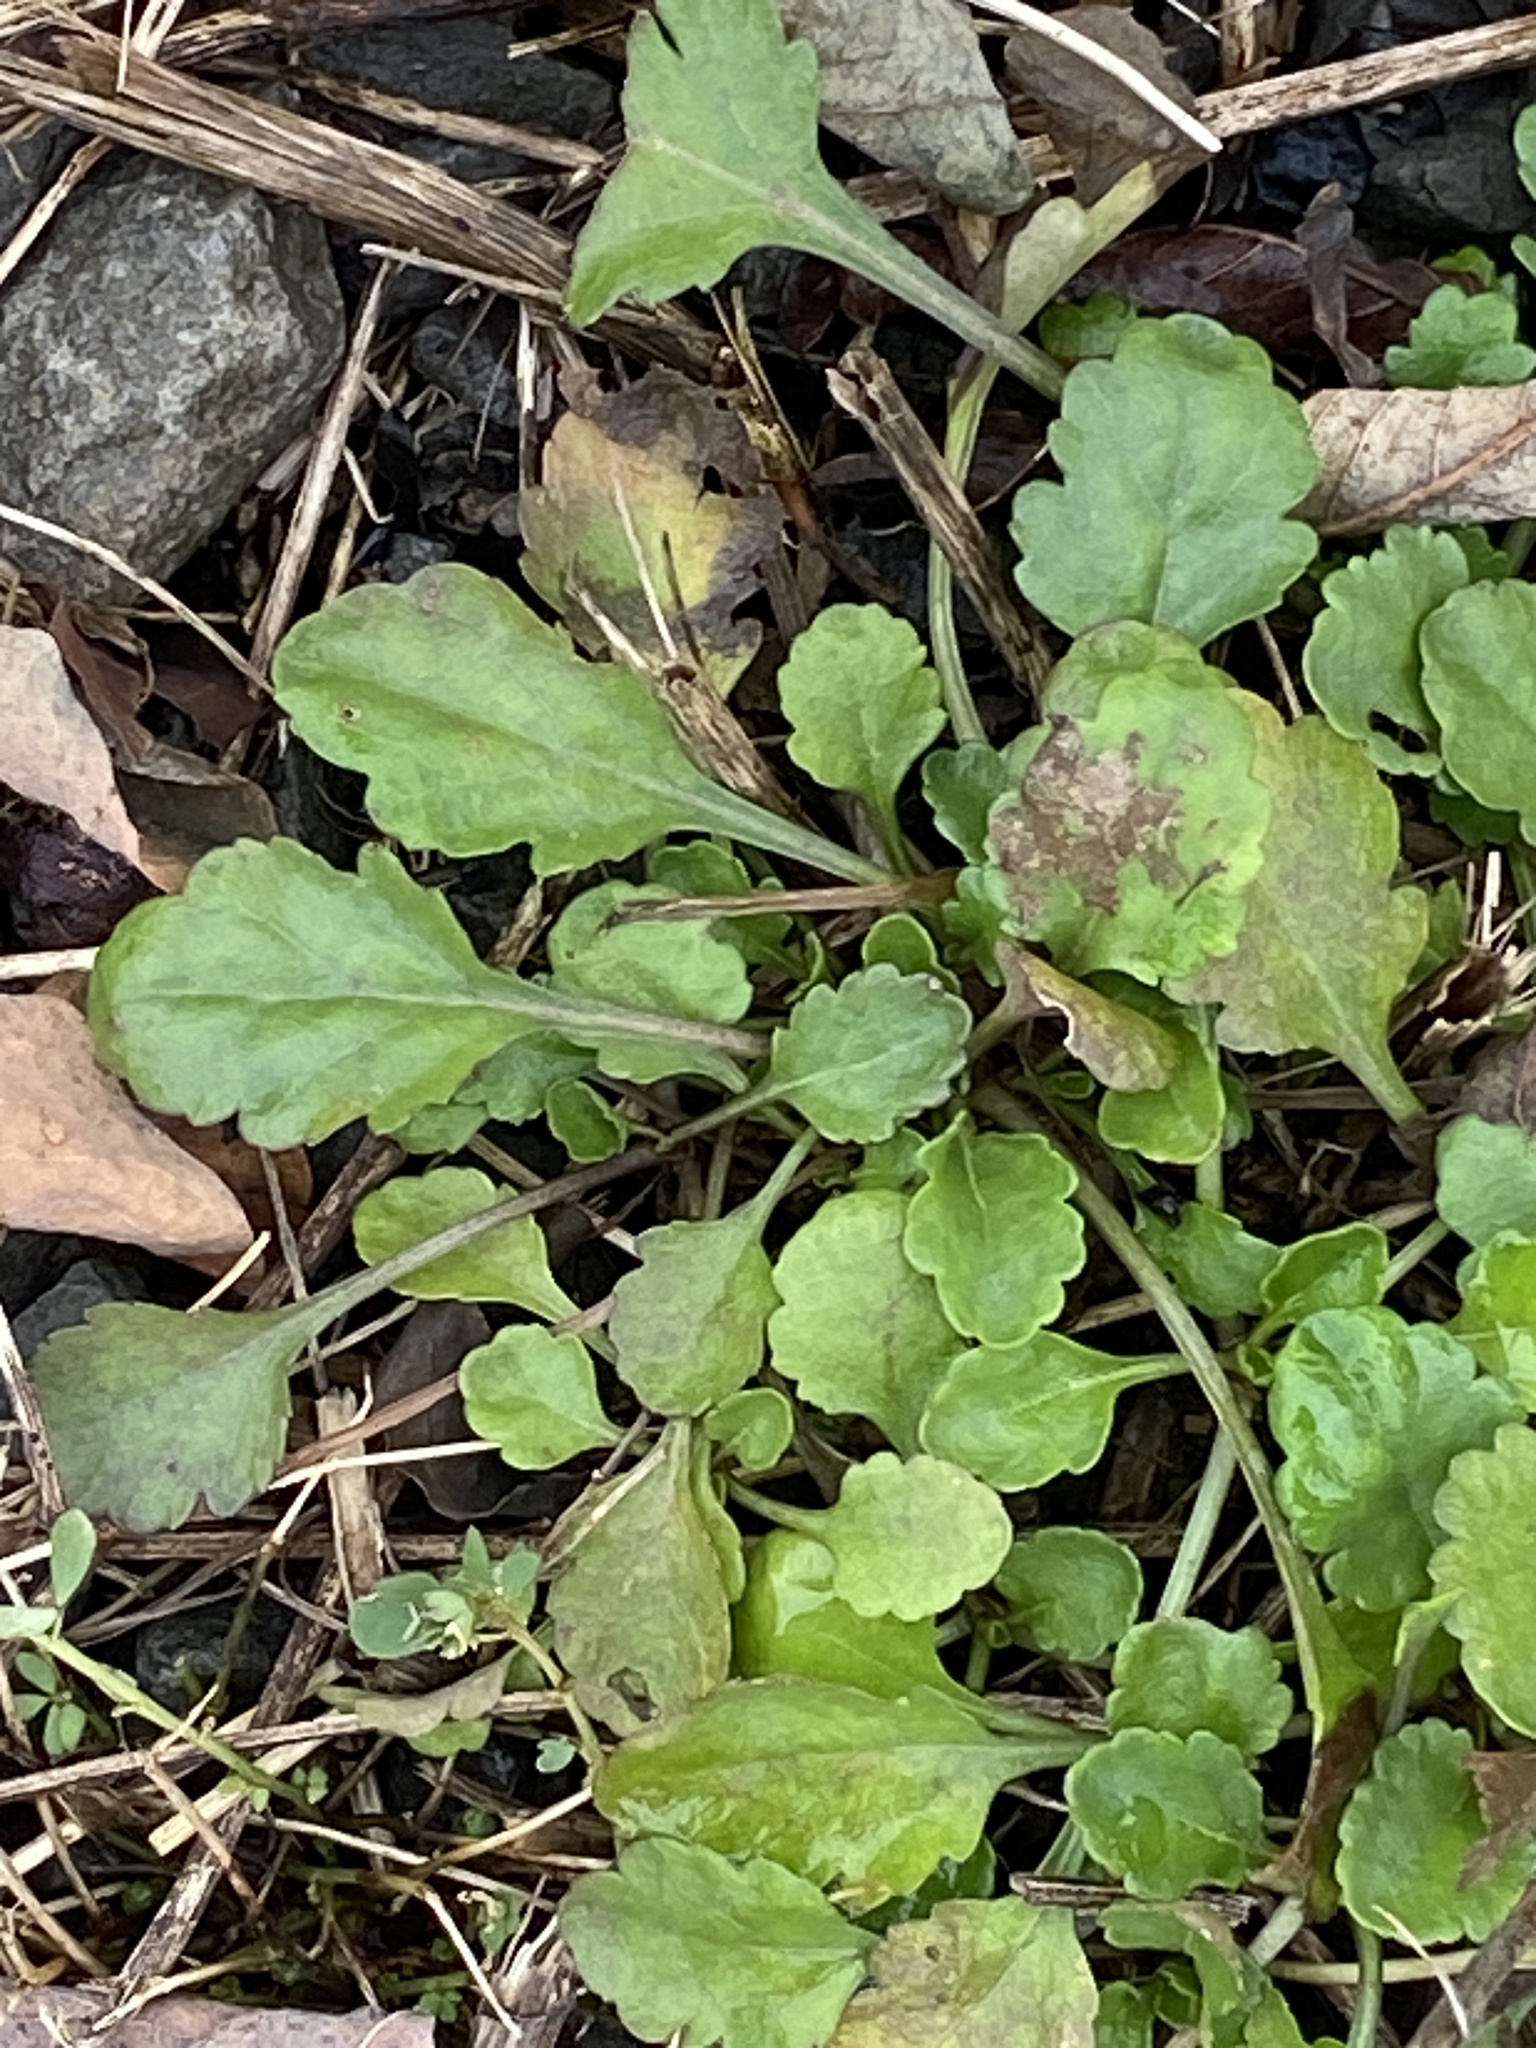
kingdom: Plantae
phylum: Tracheophyta
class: Magnoliopsida
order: Asterales
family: Asteraceae
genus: Leucanthemum
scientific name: Leucanthemum vulgare
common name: Oxeye daisy
